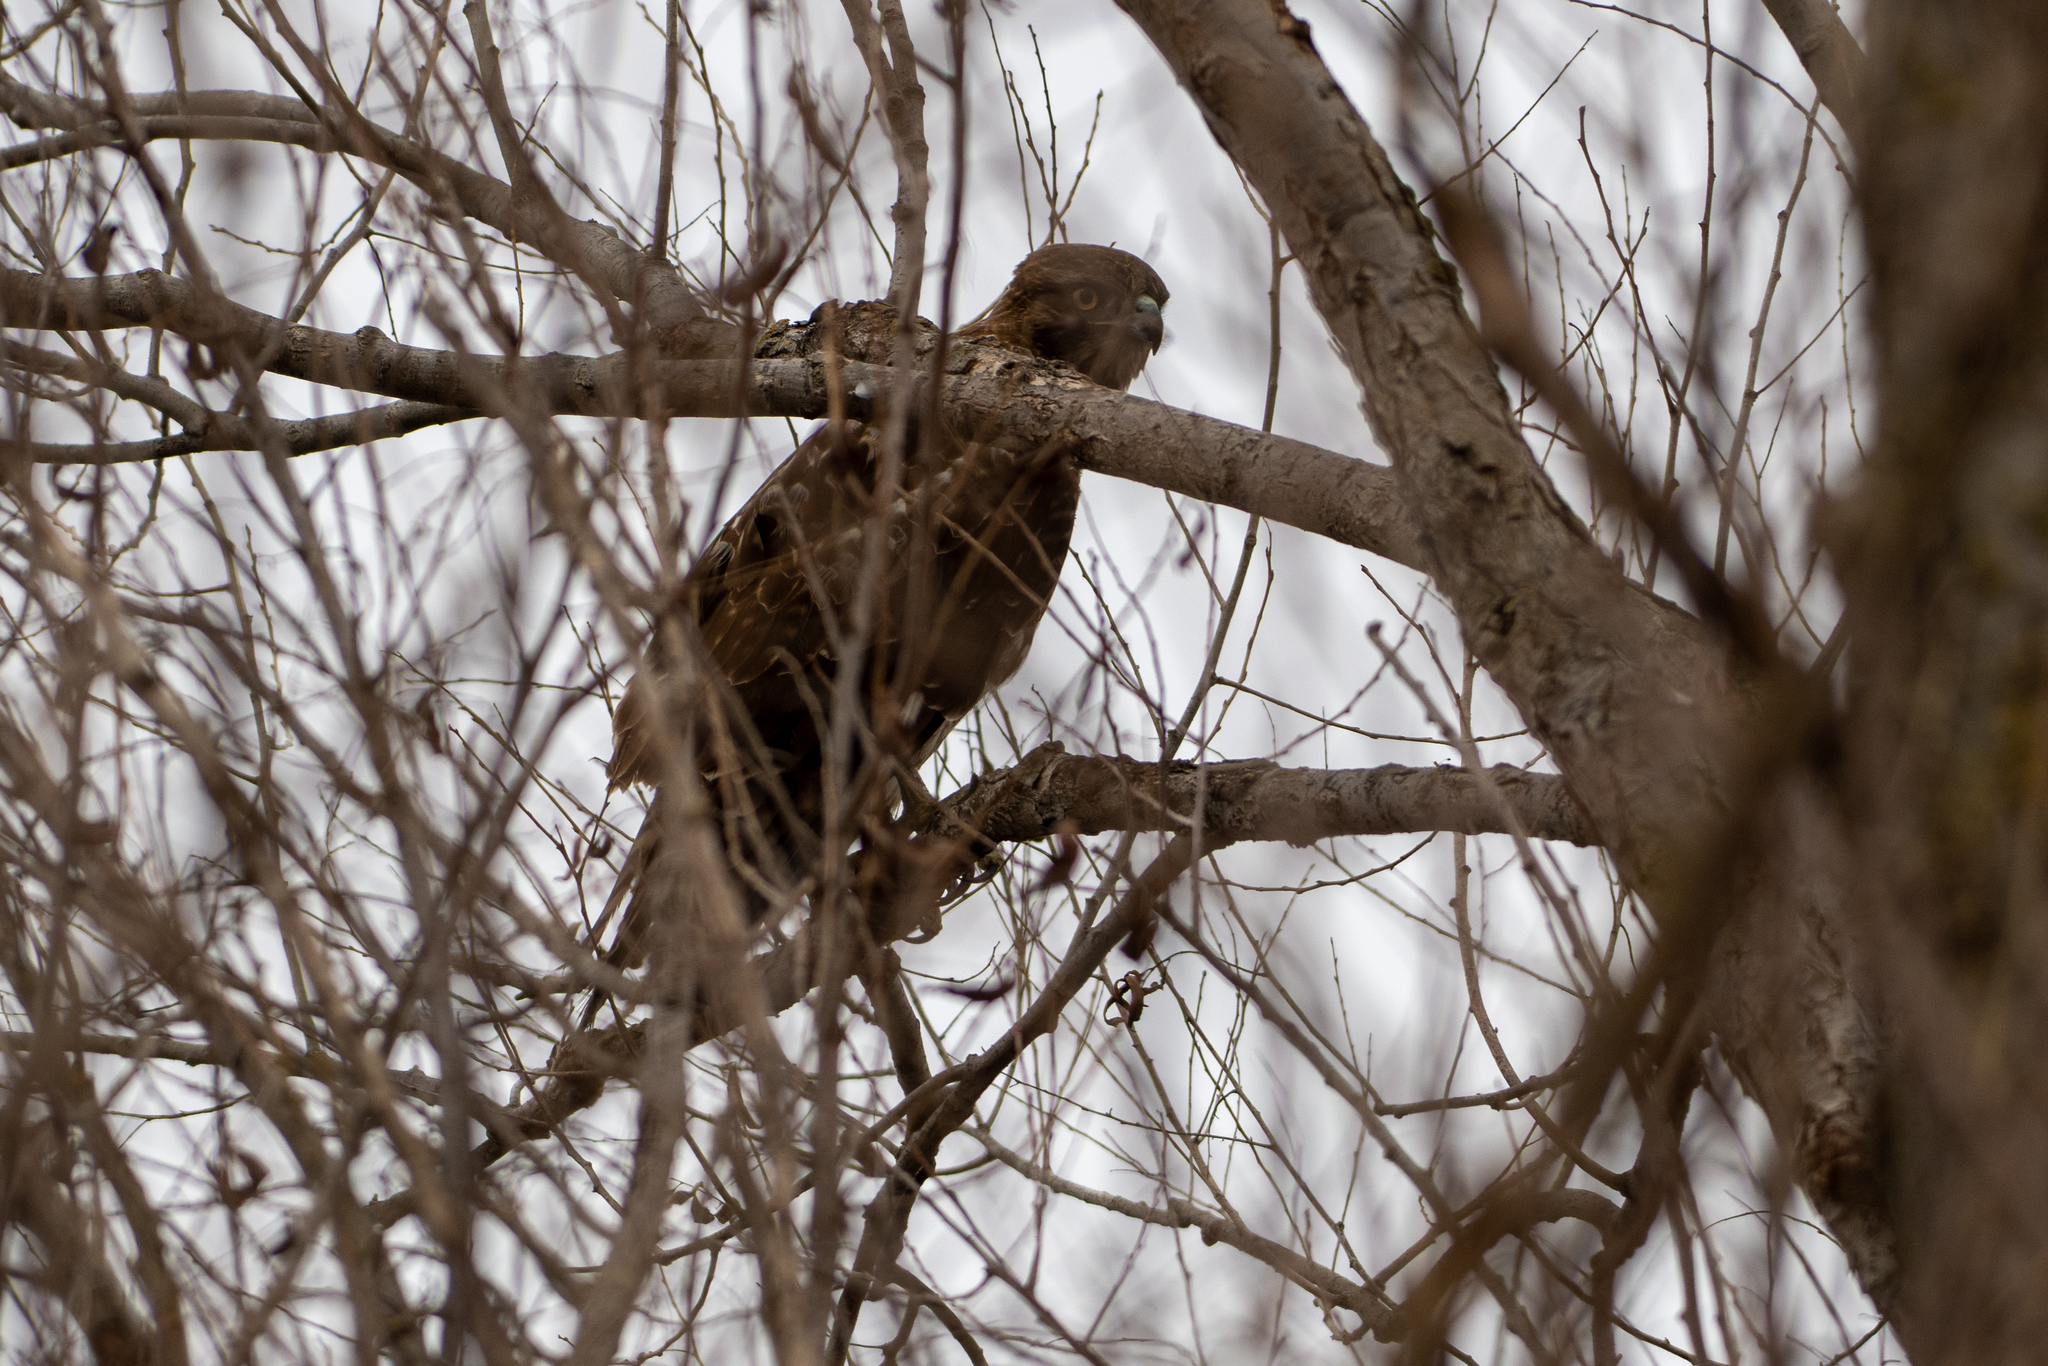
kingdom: Animalia
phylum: Chordata
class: Aves
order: Accipitriformes
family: Accipitridae
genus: Buteo
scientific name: Buteo jamaicensis
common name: Red-tailed hawk
